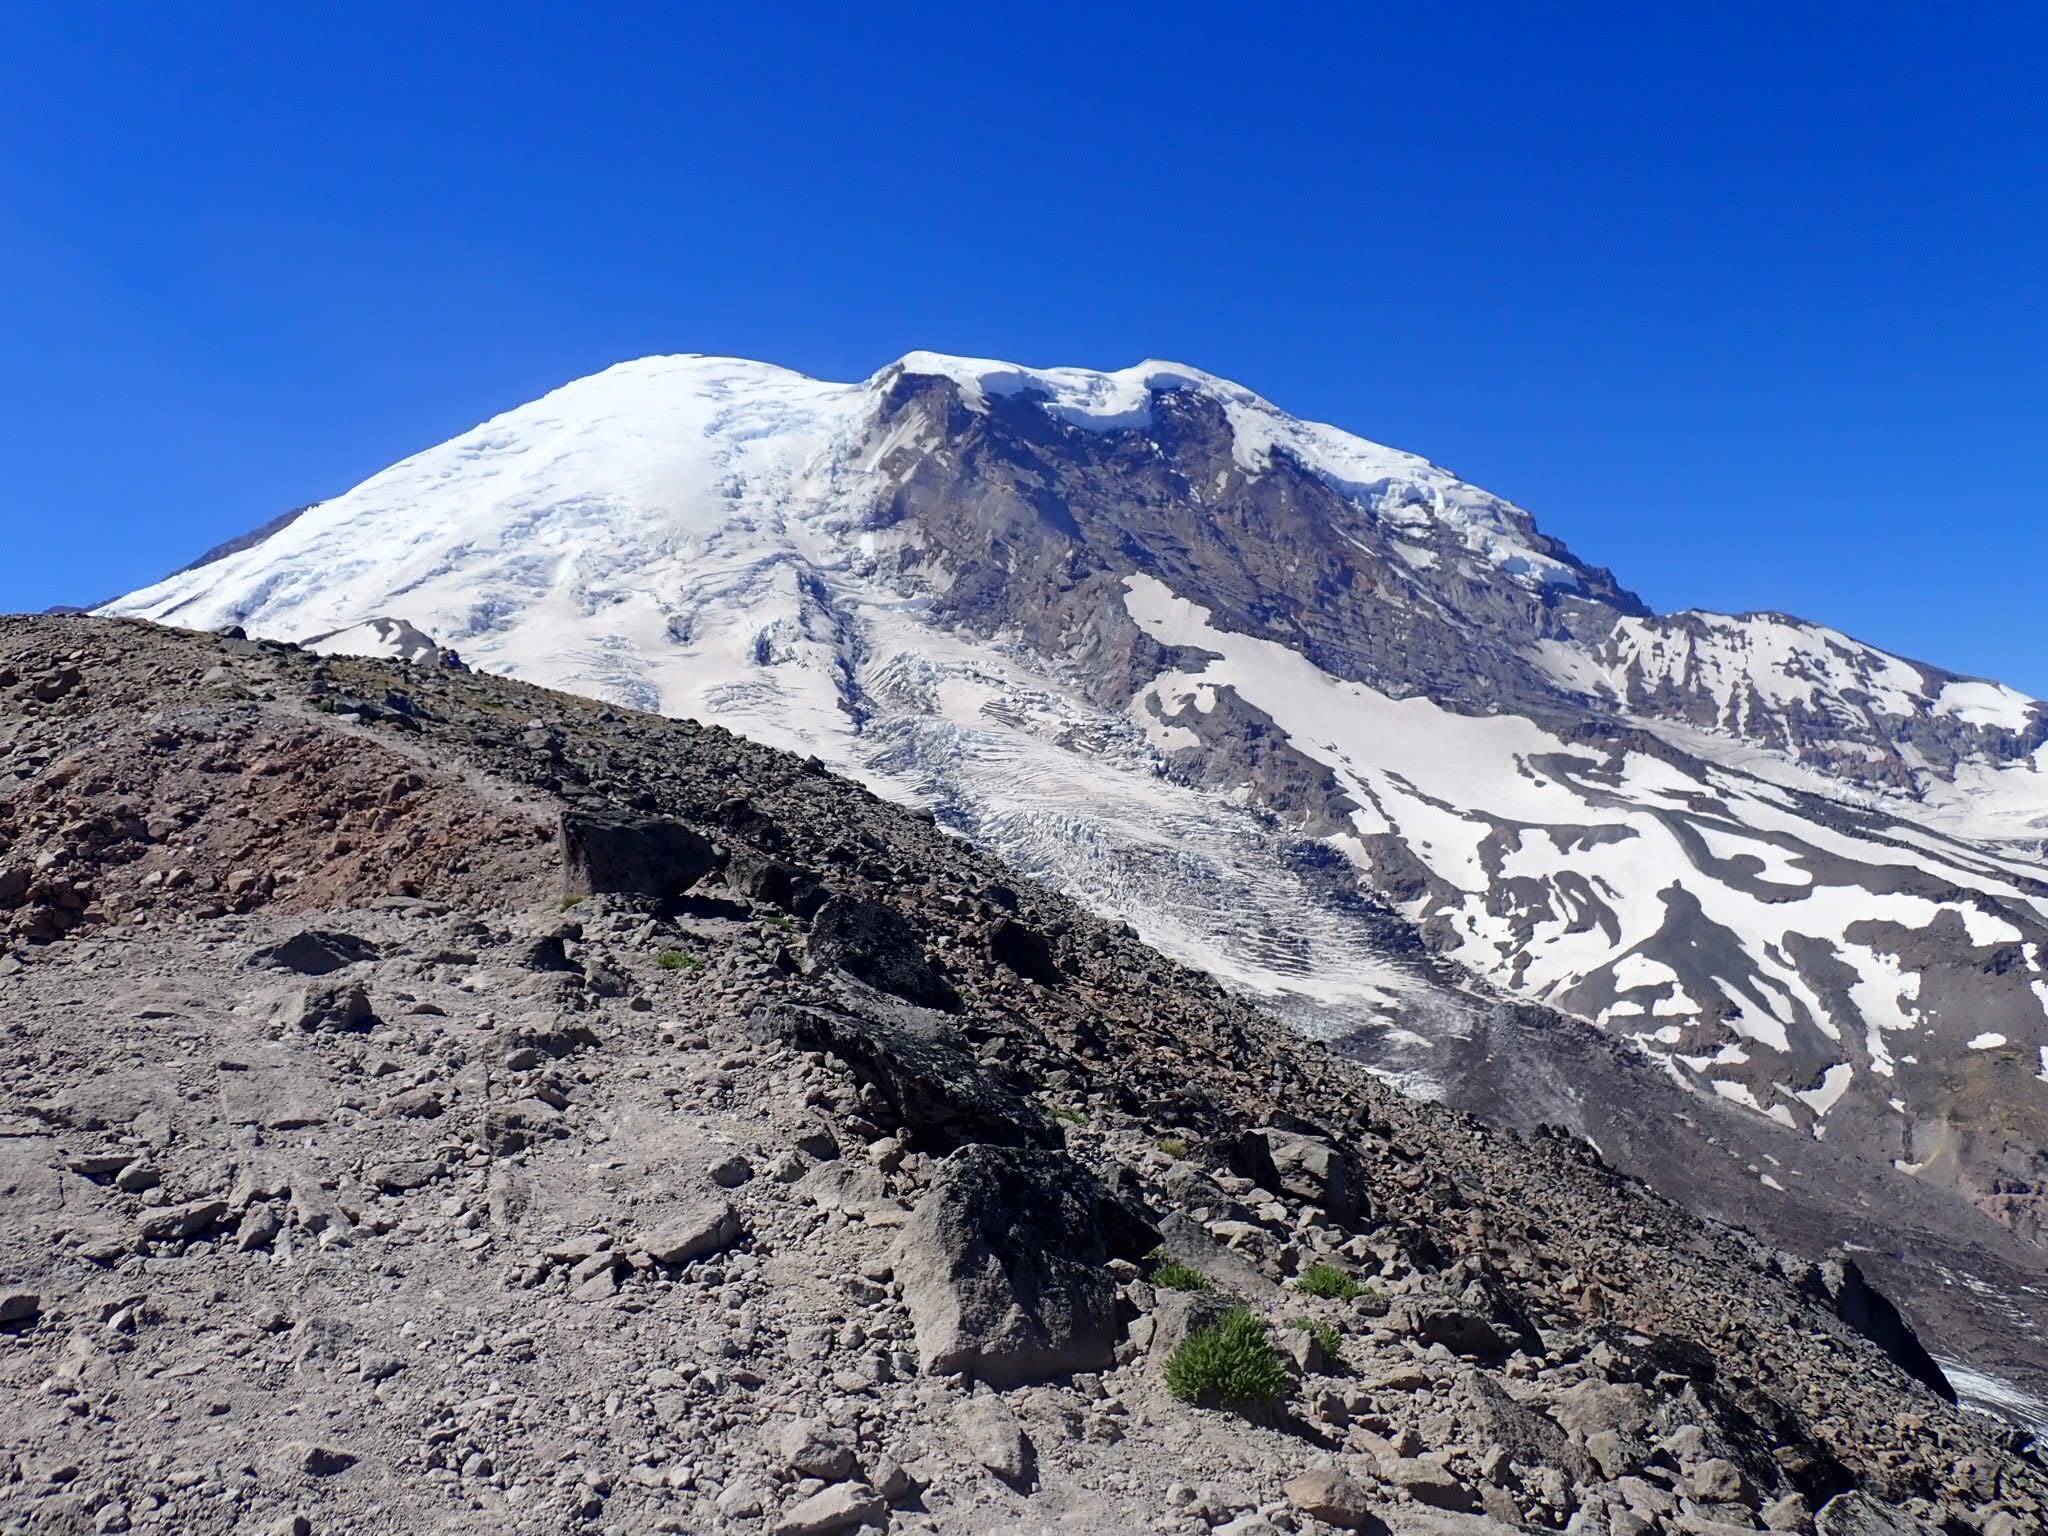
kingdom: Plantae
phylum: Tracheophyta
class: Magnoliopsida
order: Asterales
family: Asteraceae
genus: Erigeron
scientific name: Erigeron aureus
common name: Alpine yellow fleabane
